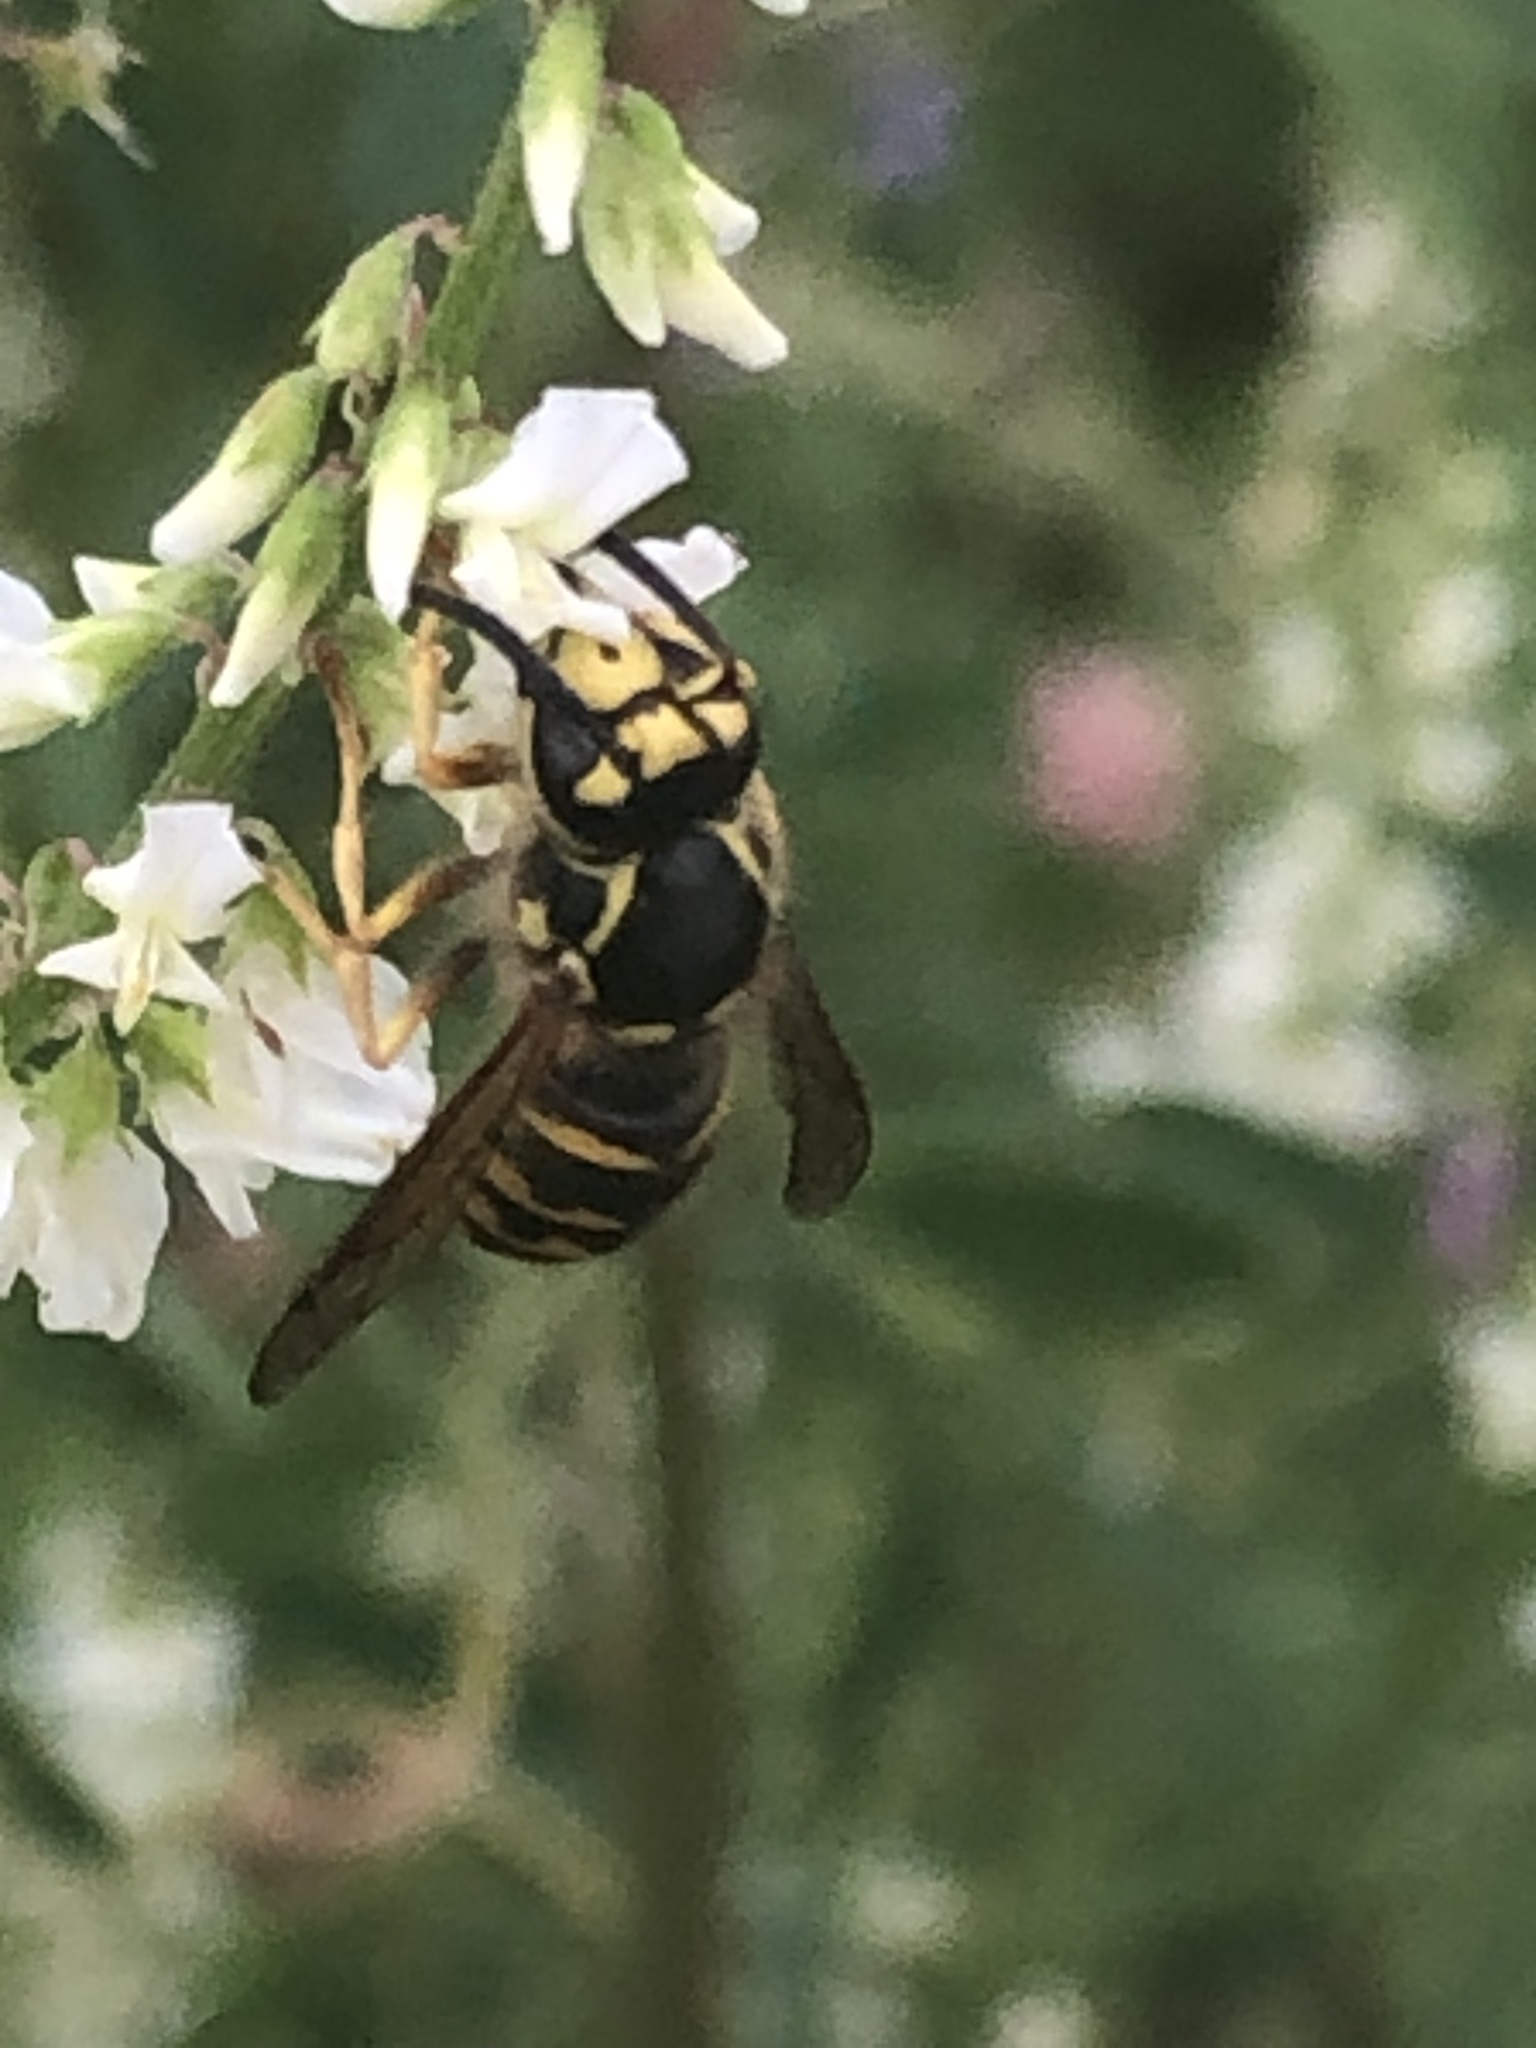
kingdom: Animalia
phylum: Arthropoda
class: Insecta
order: Hymenoptera
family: Vespidae
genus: Dolichovespula
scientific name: Dolichovespula arenaria
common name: Aerial yellowjacket
